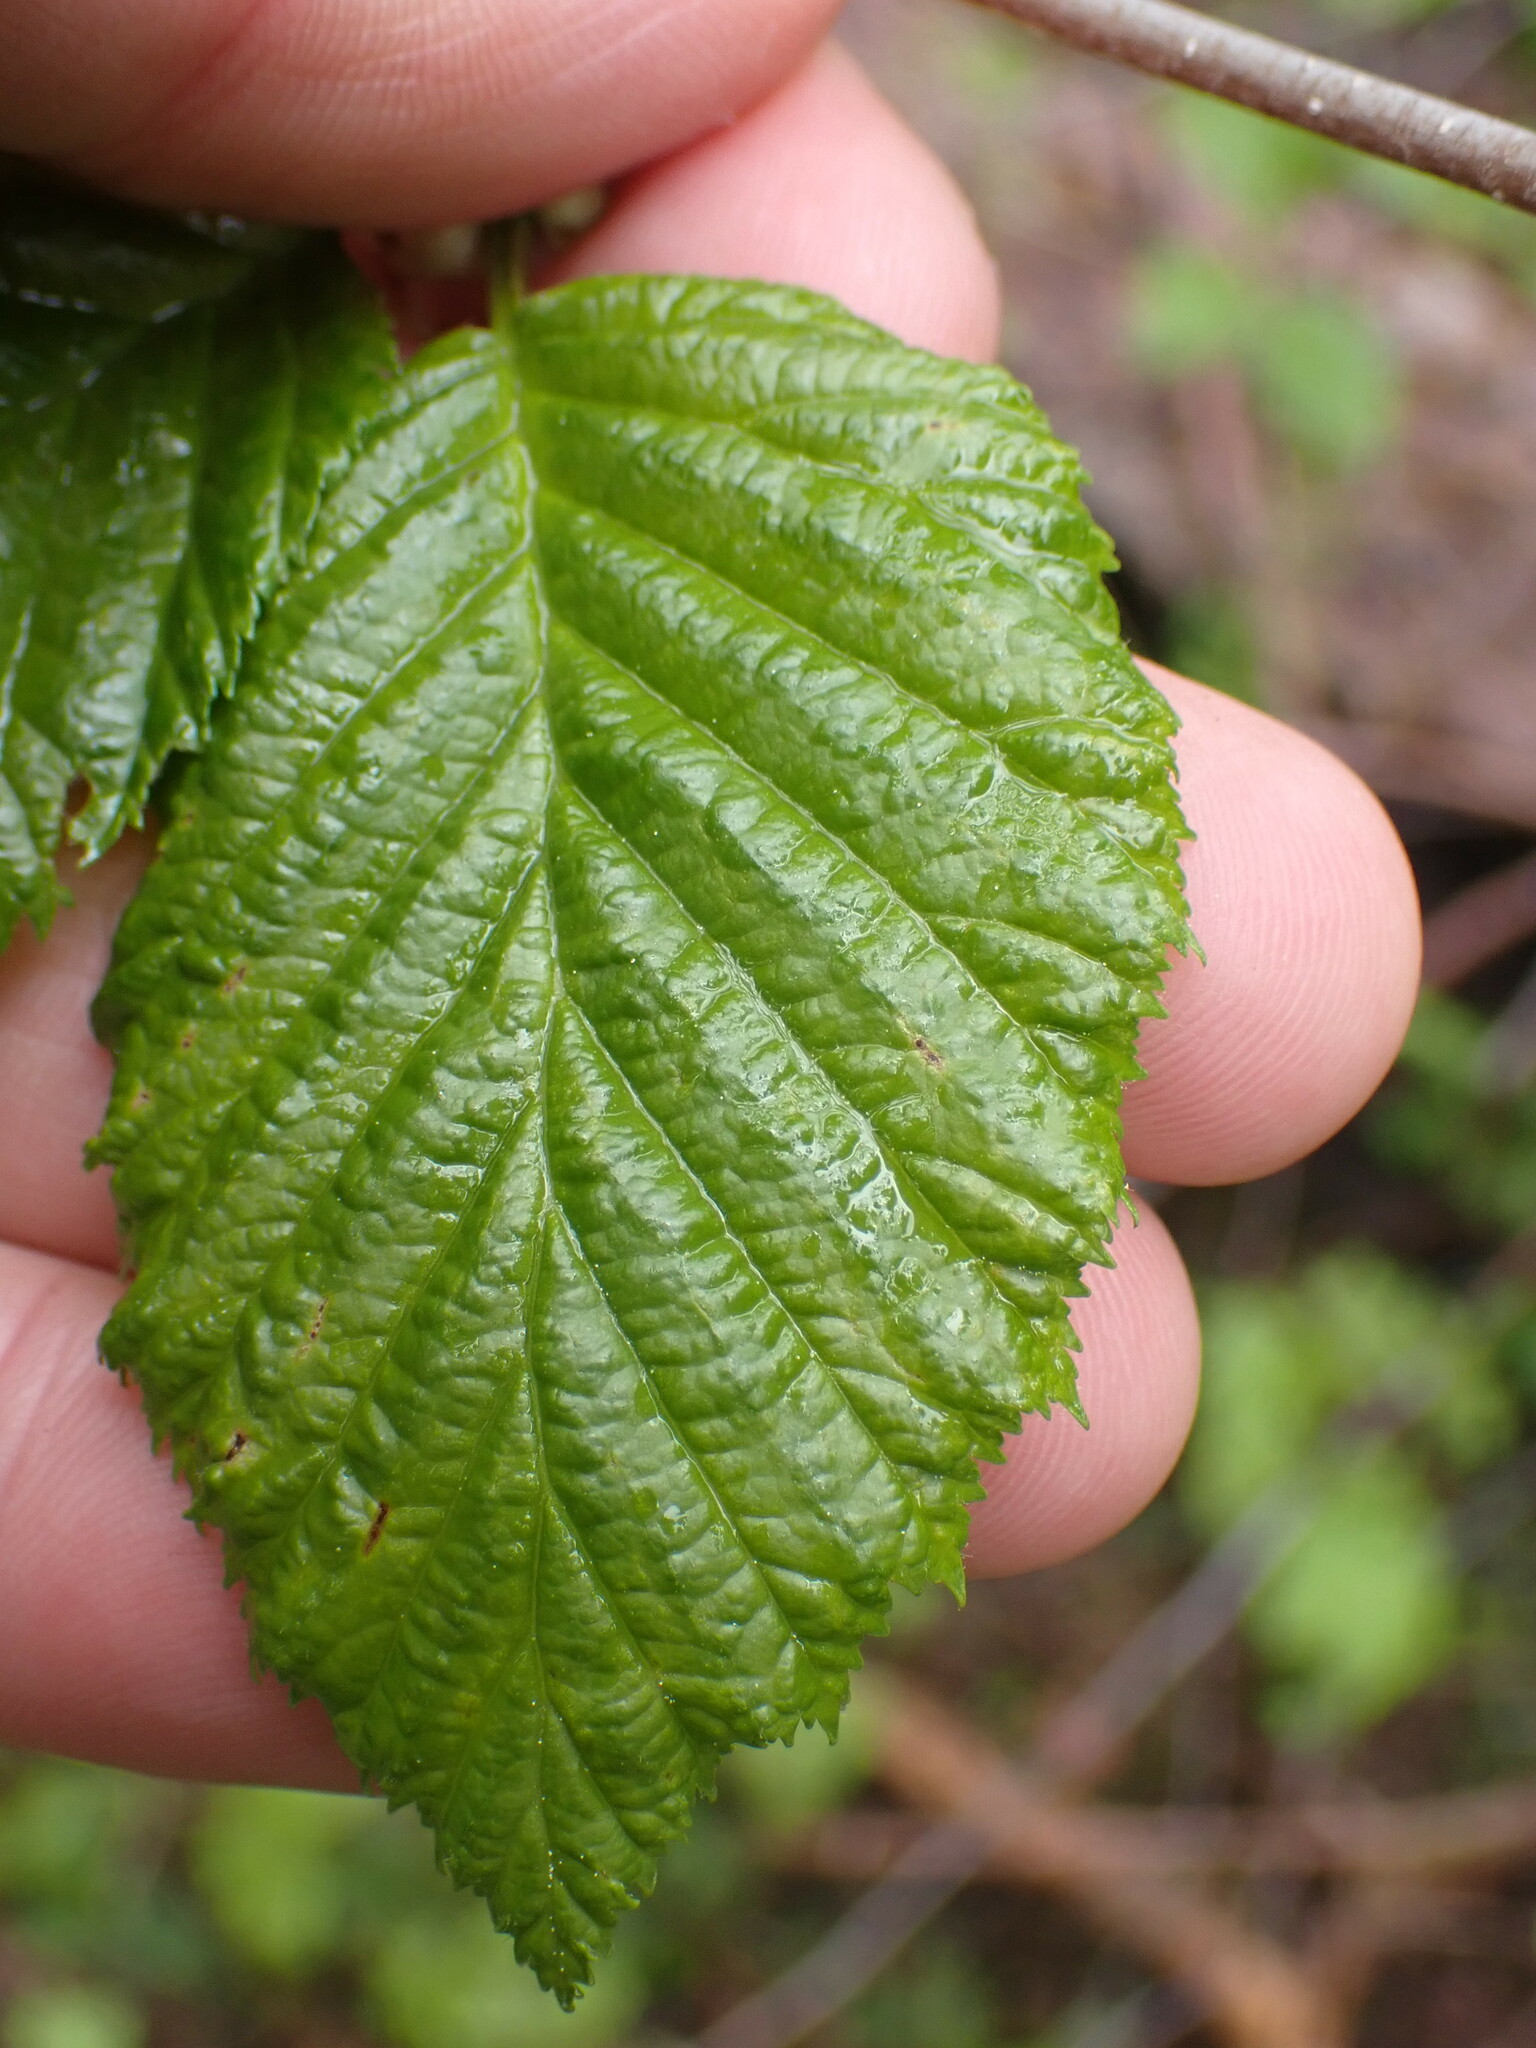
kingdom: Plantae
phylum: Tracheophyta
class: Magnoliopsida
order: Fagales
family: Betulaceae
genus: Alnus
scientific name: Alnus alnobetula
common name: Green alder
